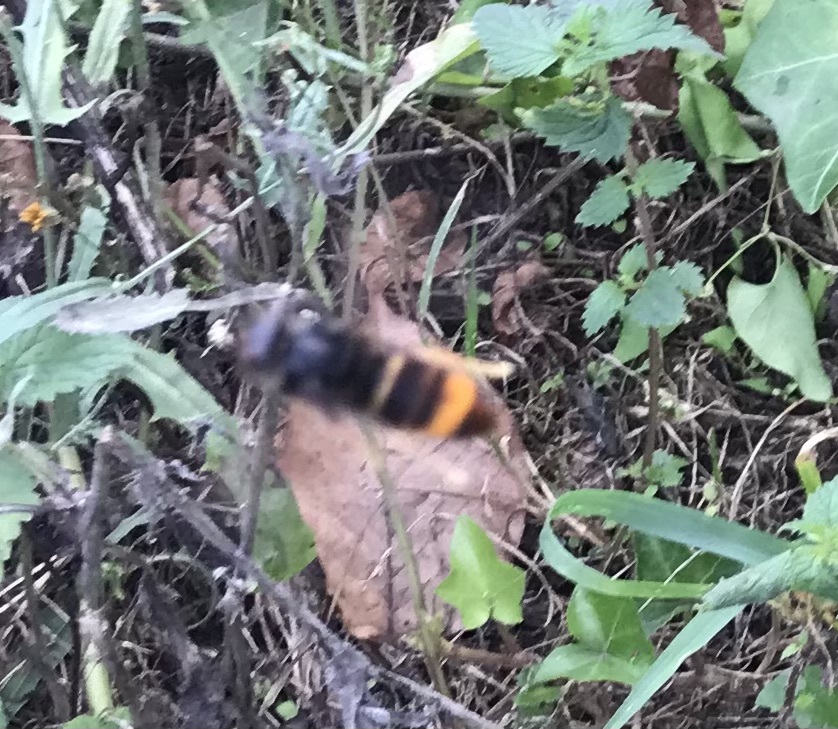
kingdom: Animalia
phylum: Arthropoda
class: Insecta
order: Hymenoptera
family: Vespidae
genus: Vespa
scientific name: Vespa velutina
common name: Asian hornet
